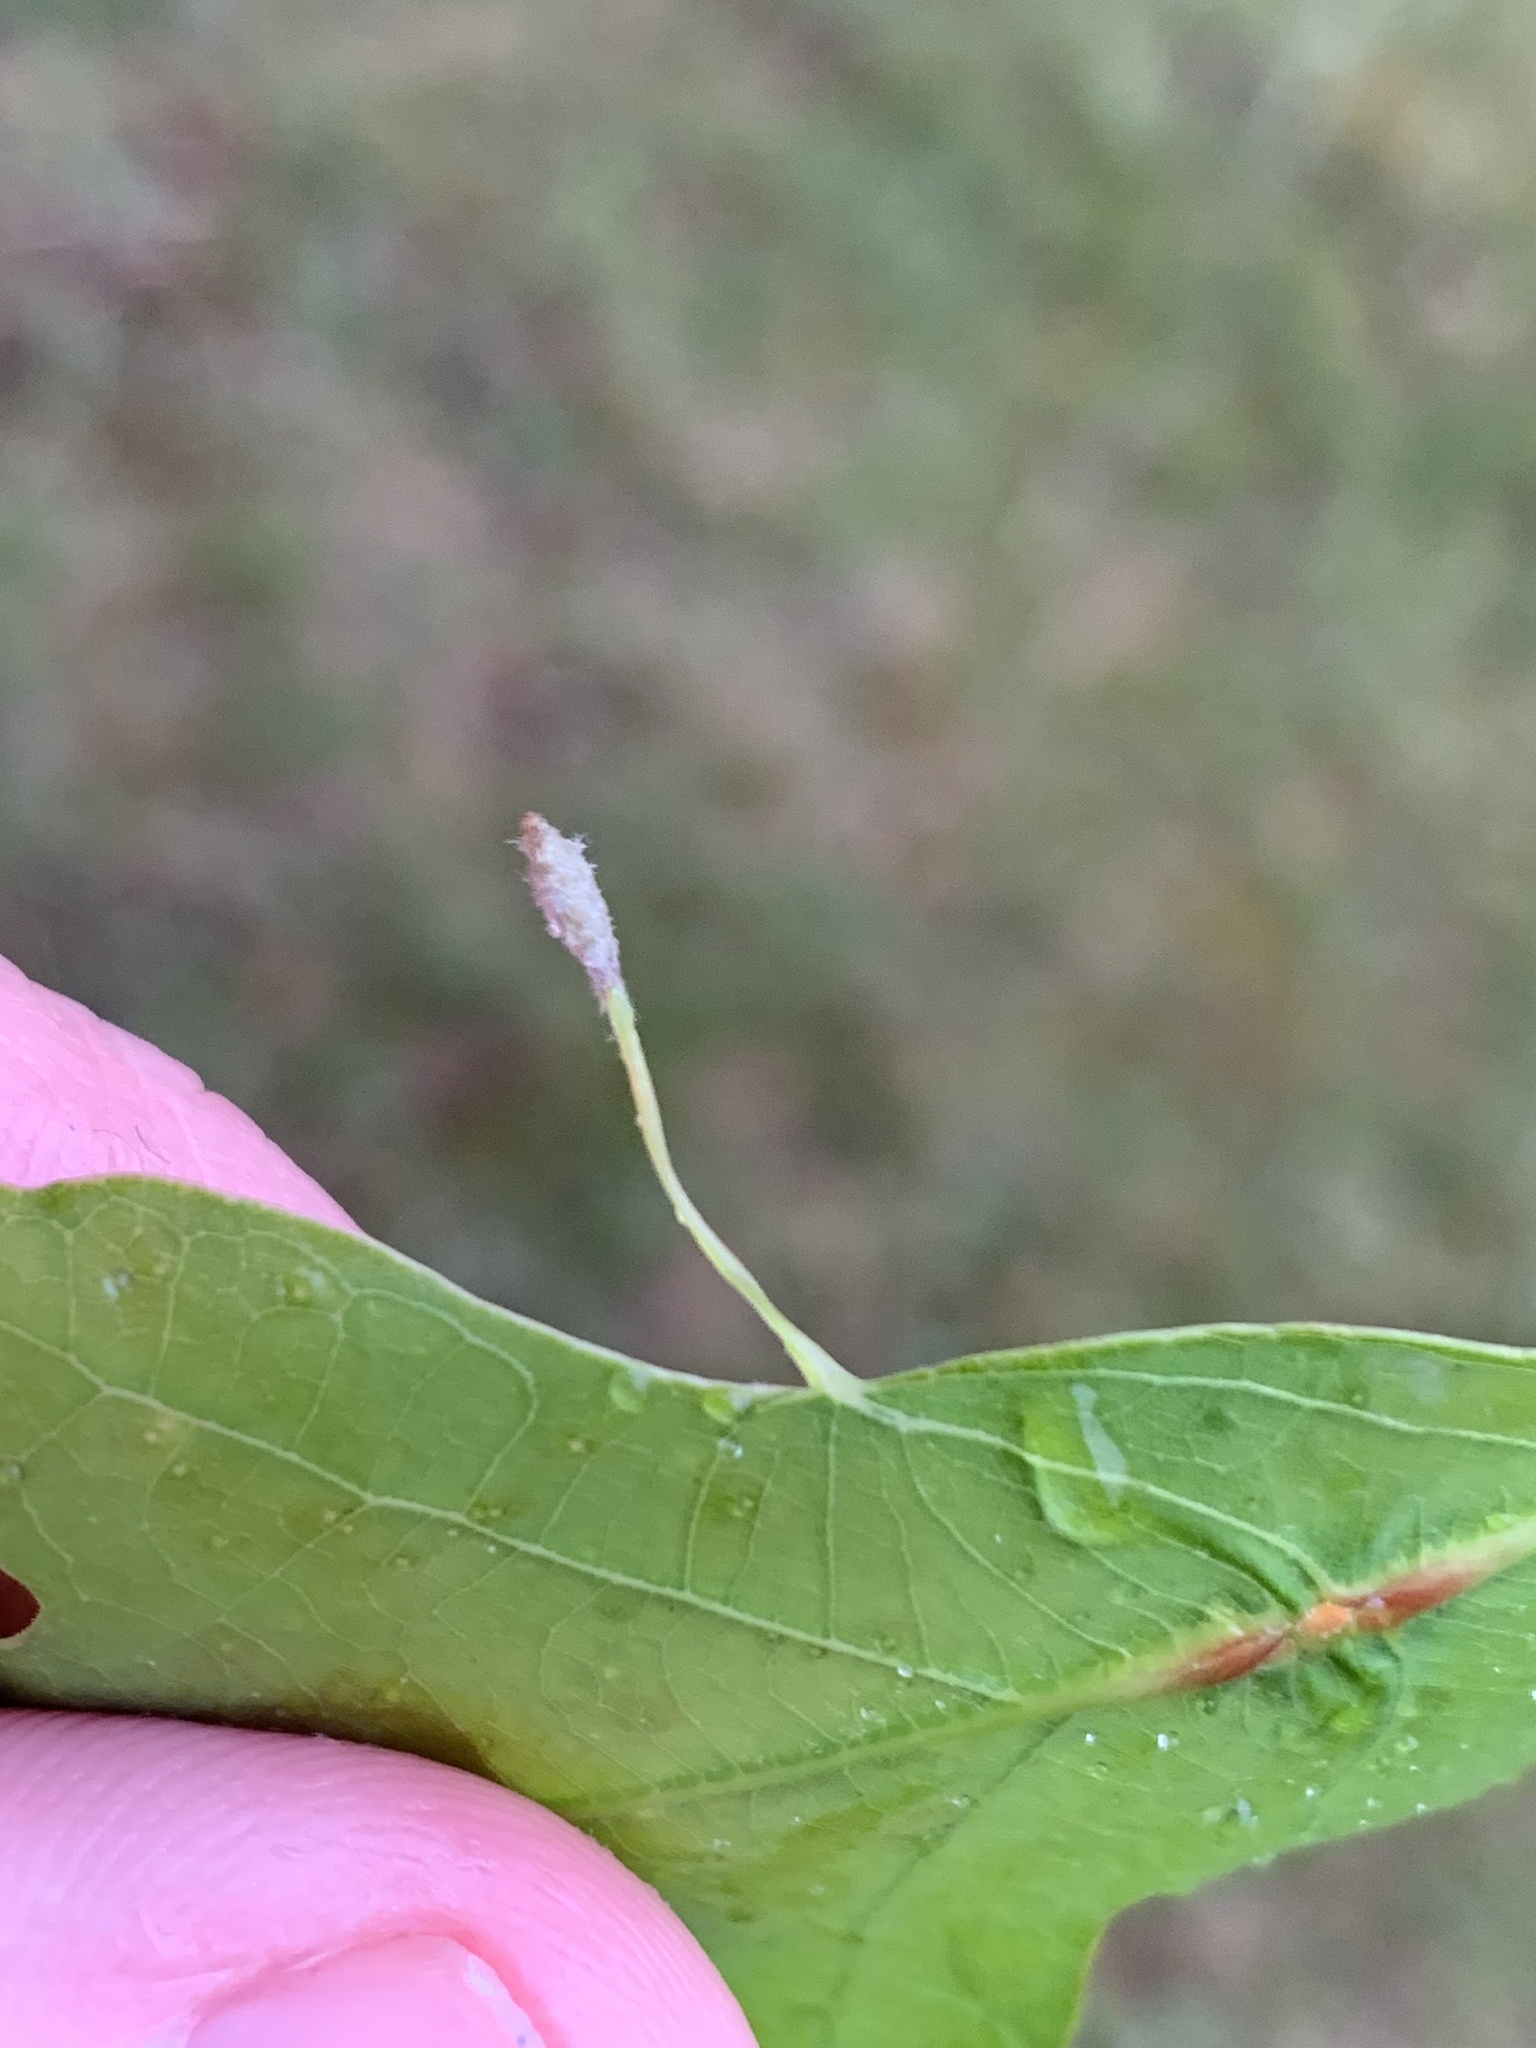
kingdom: Animalia
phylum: Arthropoda
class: Insecta
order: Hymenoptera
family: Cynipidae
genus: Andricus
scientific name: Andricus
